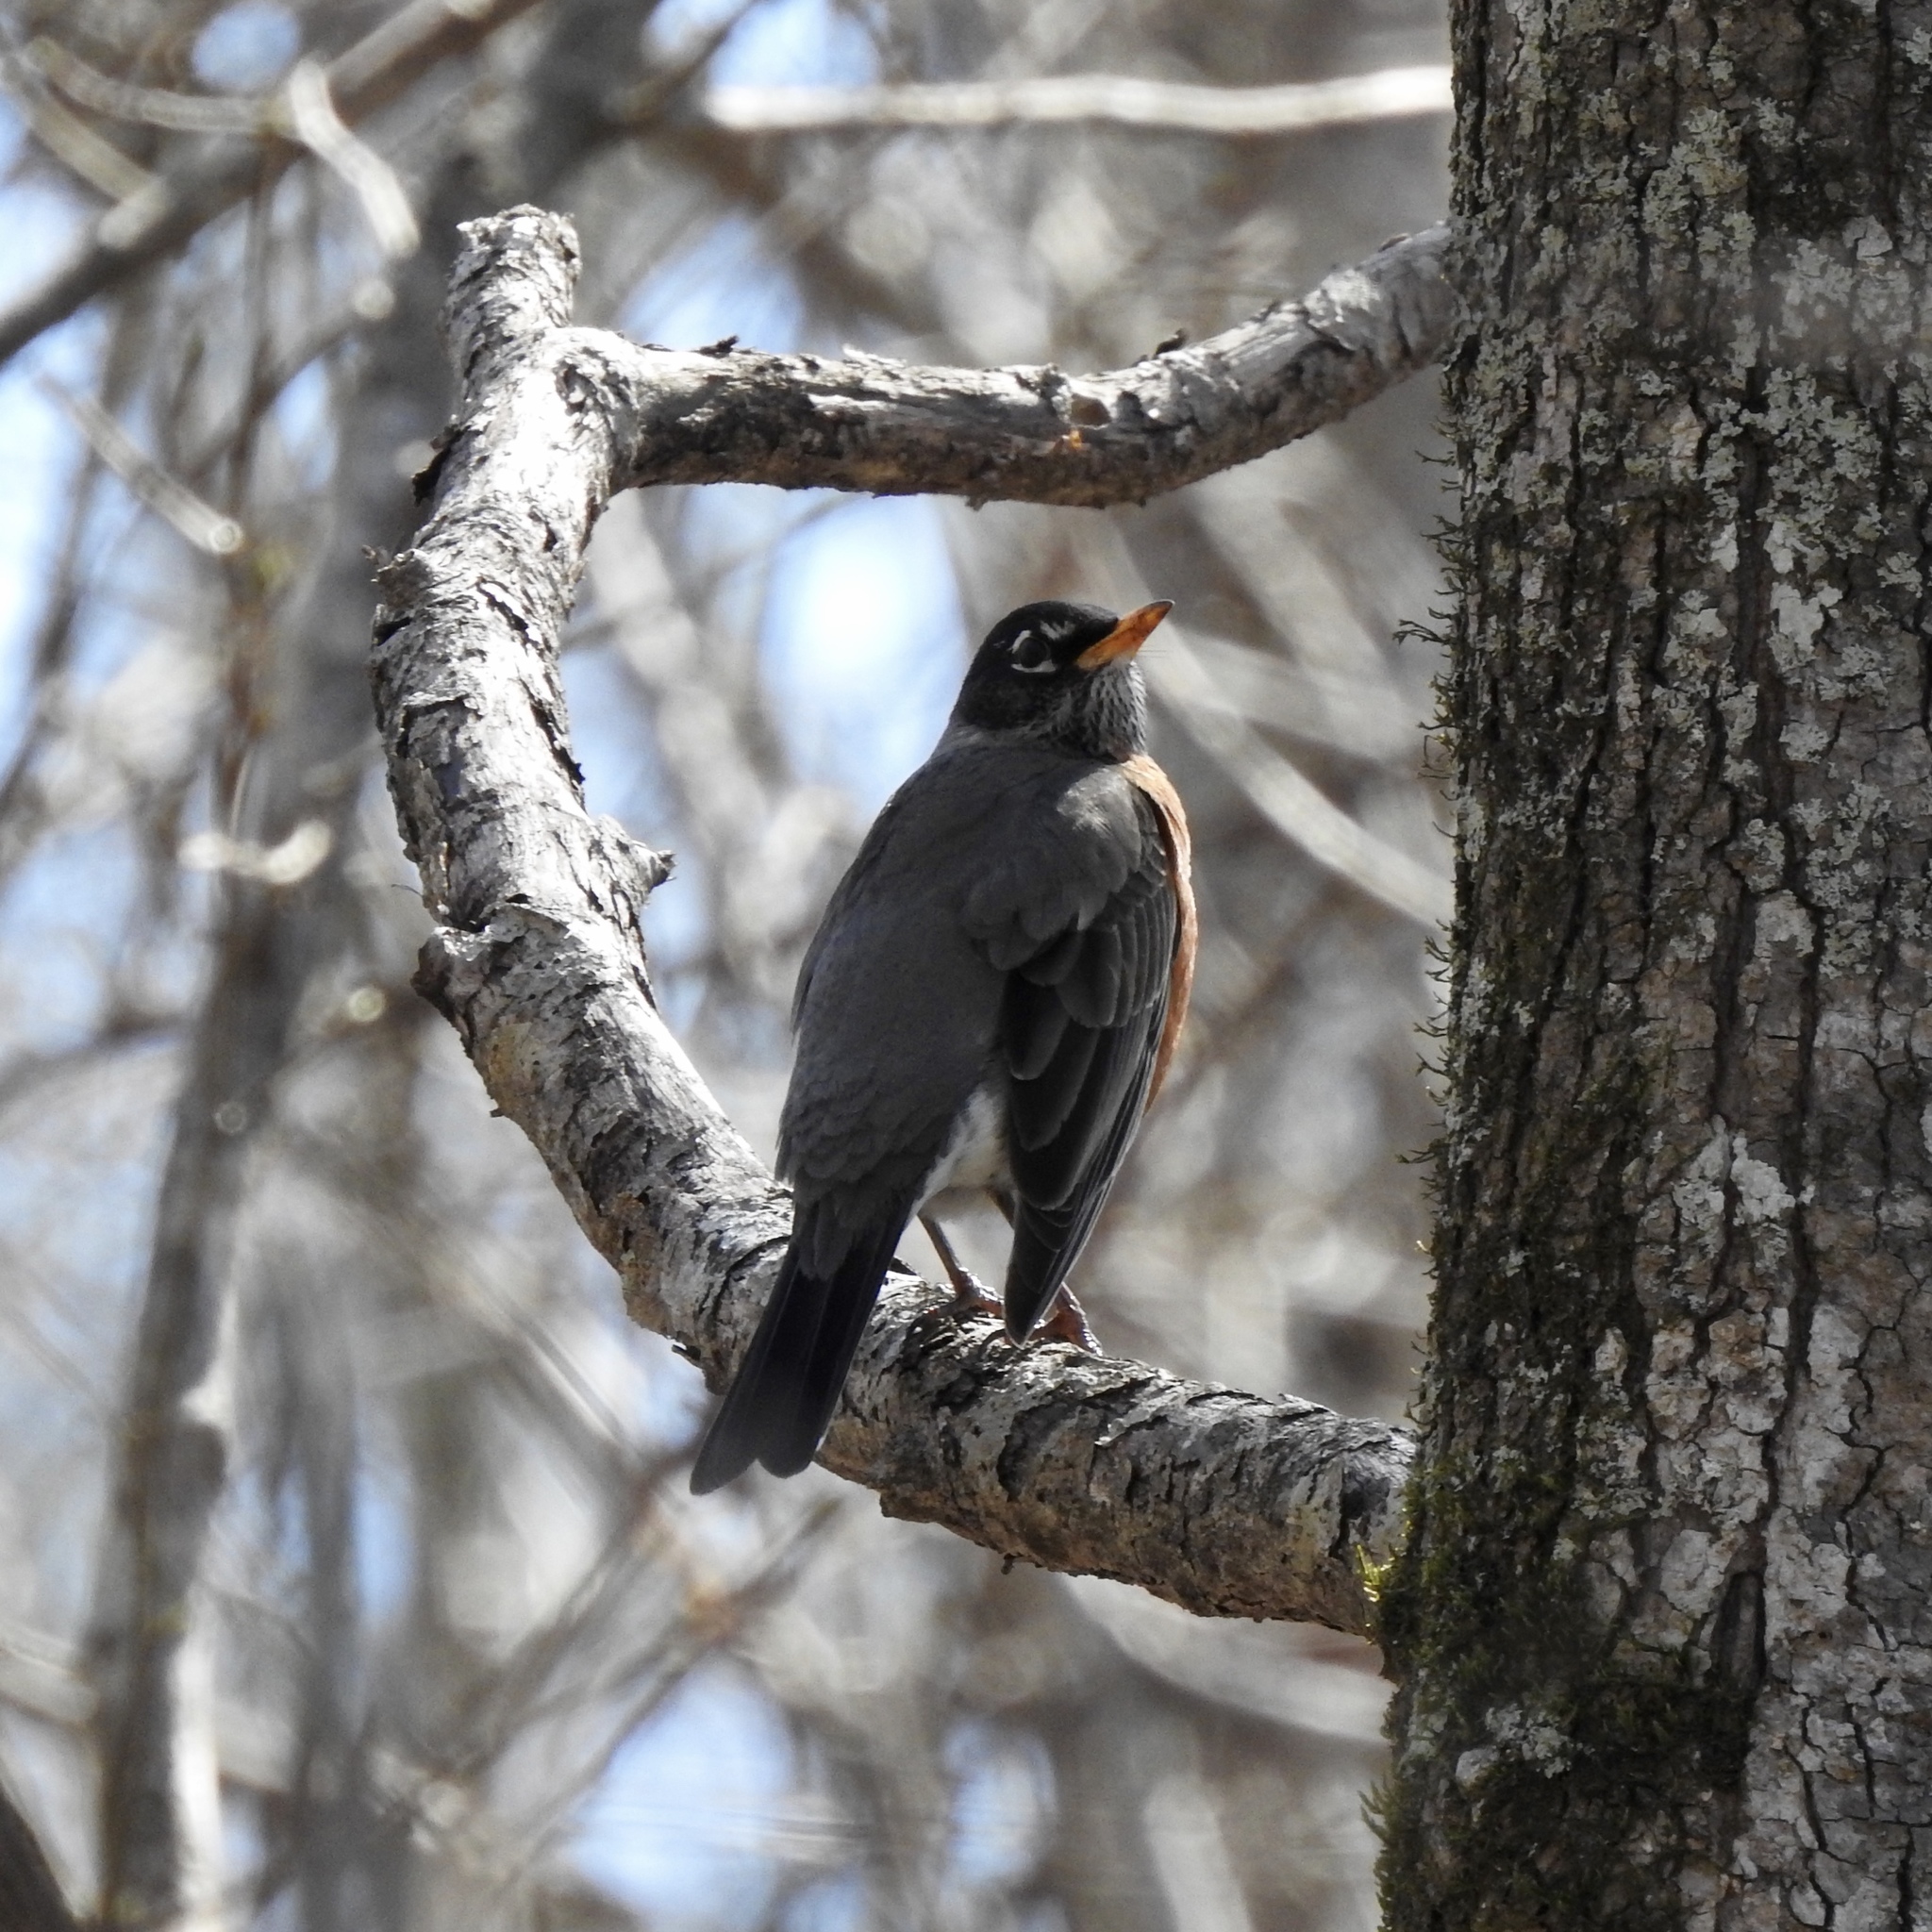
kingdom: Animalia
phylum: Chordata
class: Aves
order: Passeriformes
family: Turdidae
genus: Turdus
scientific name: Turdus migratorius
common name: American robin
